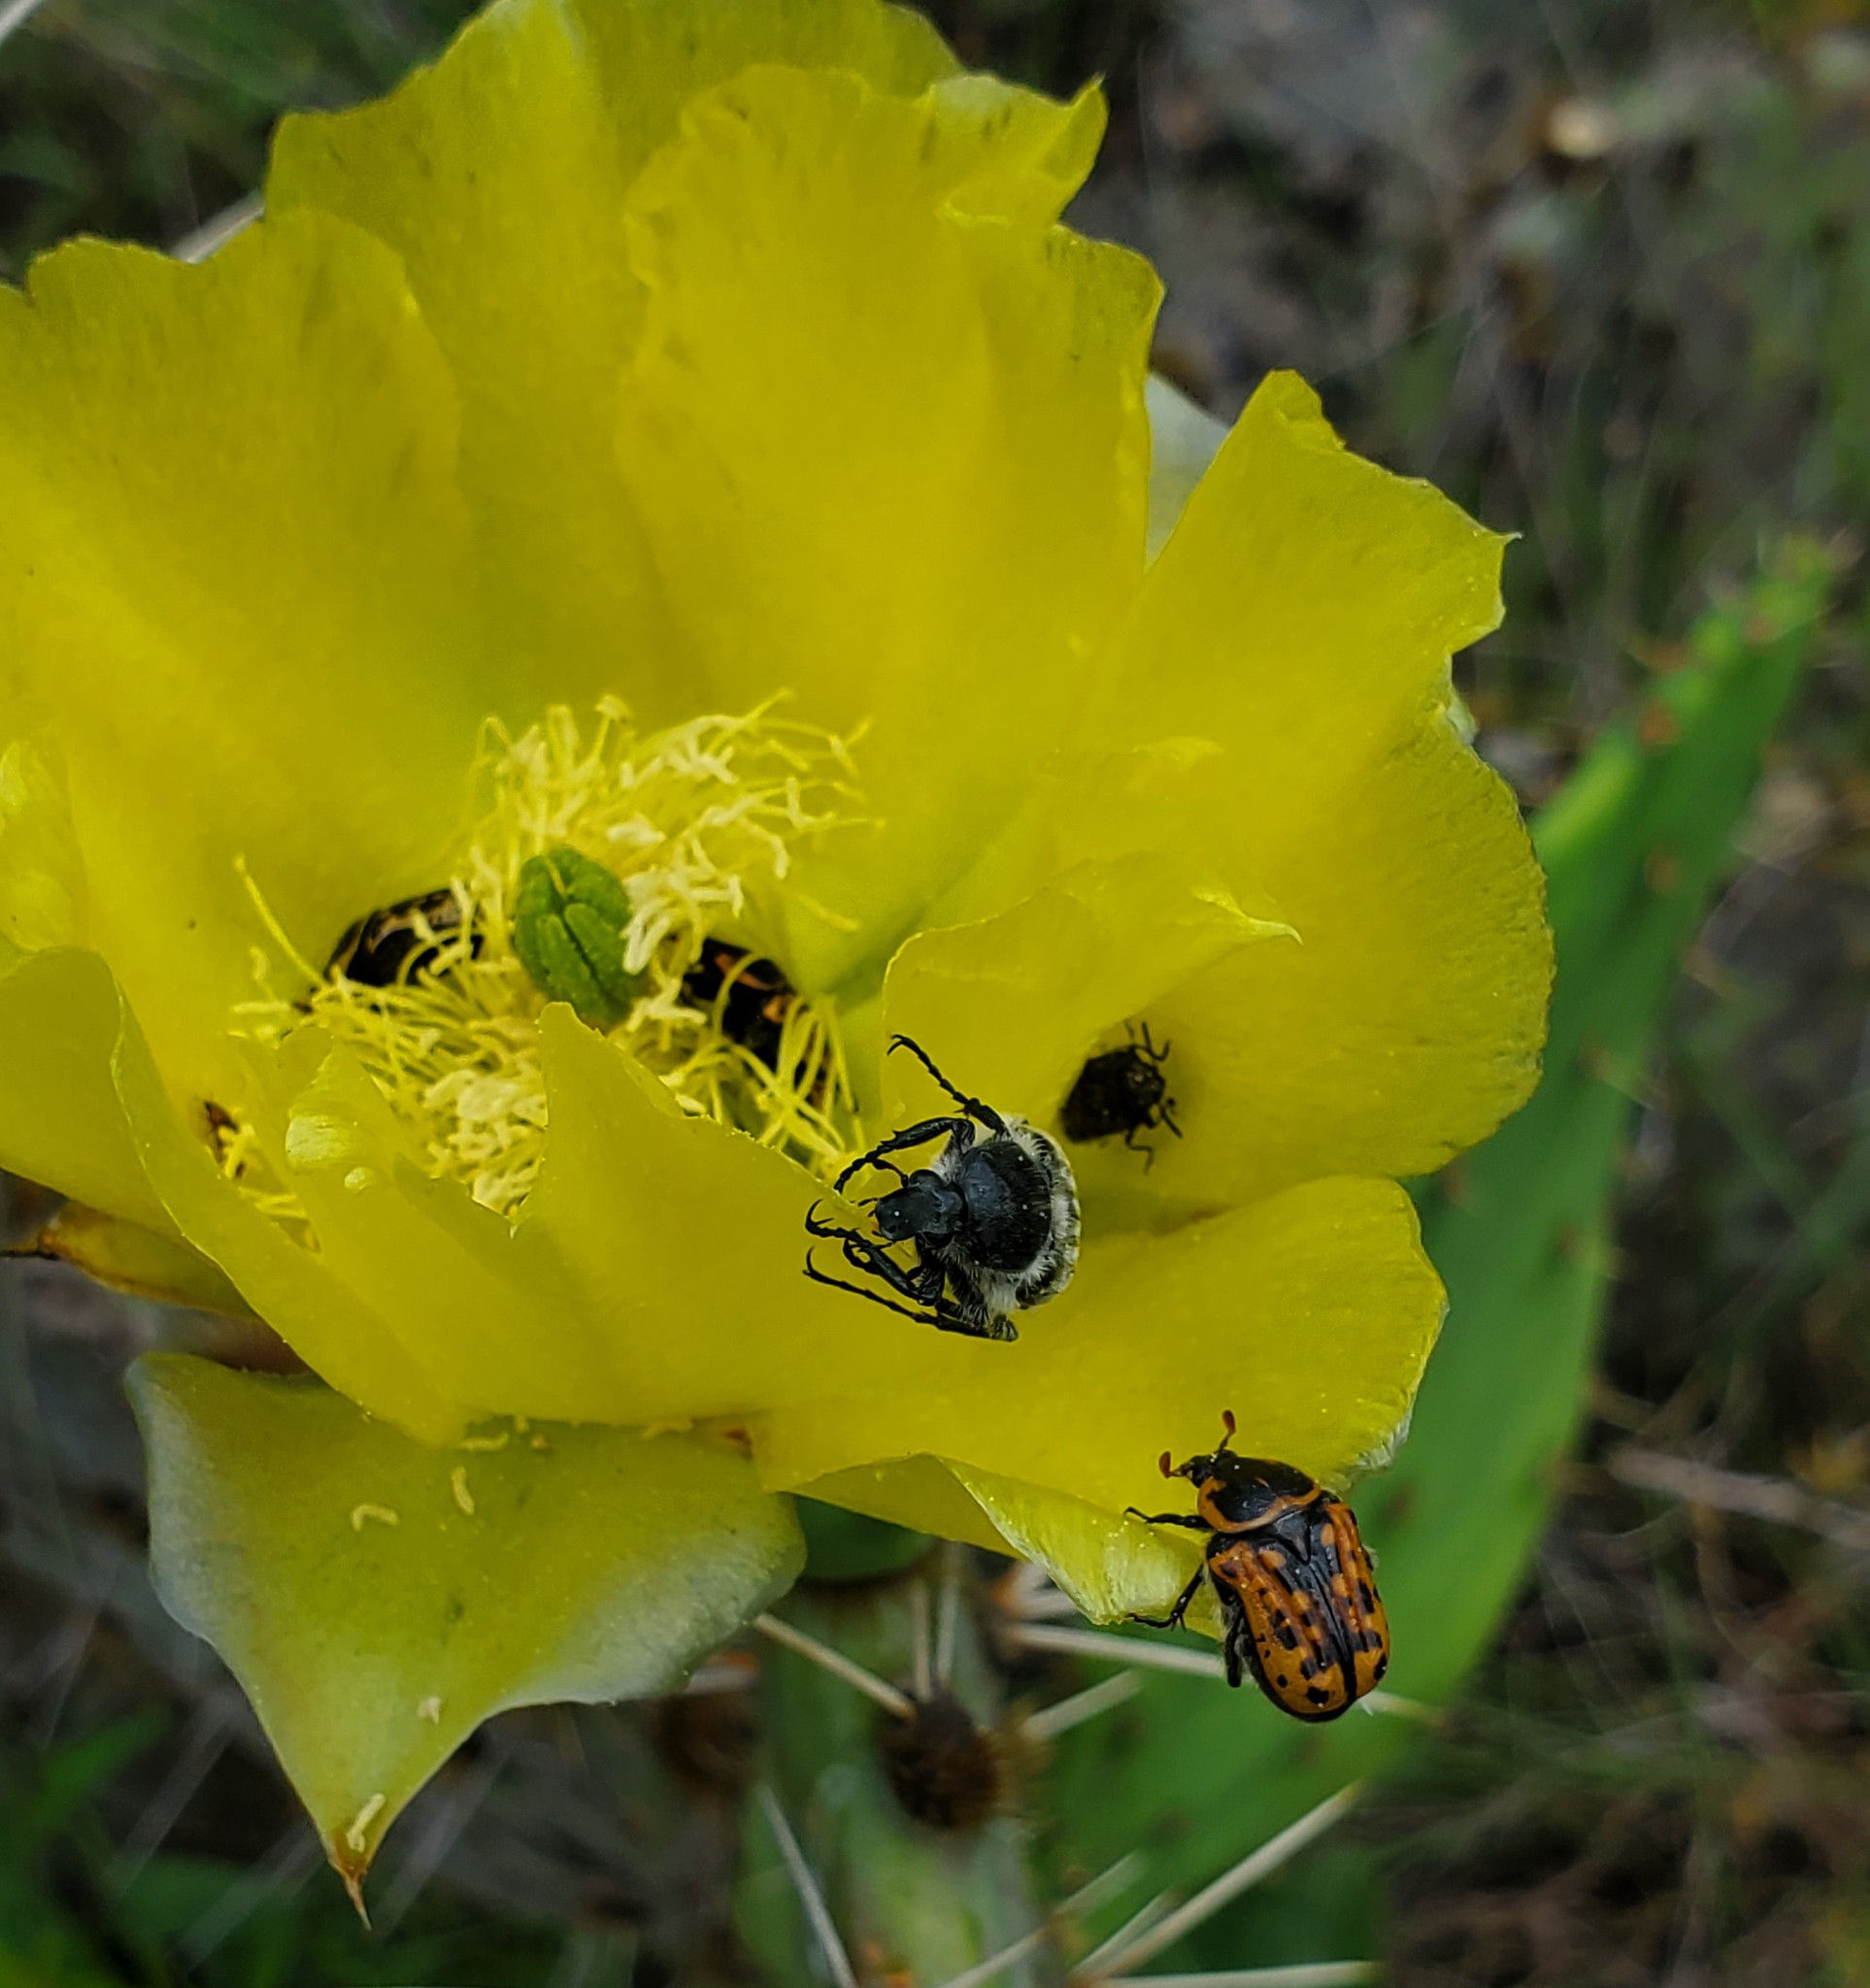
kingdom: Animalia
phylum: Arthropoda
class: Insecta
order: Coleoptera
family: Scarabaeidae
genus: Trichiotinus
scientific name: Trichiotinus texanus
